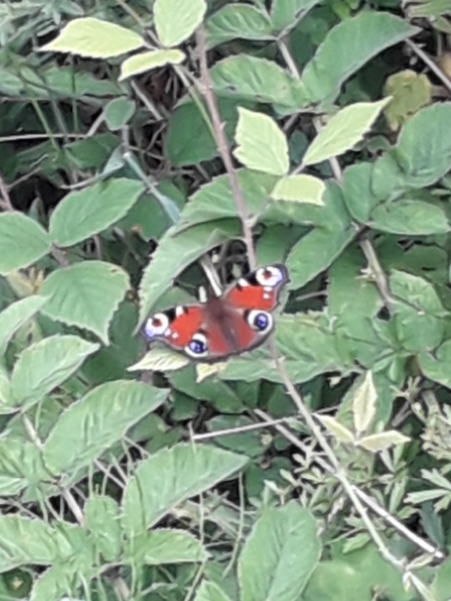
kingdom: Animalia
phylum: Arthropoda
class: Insecta
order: Lepidoptera
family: Nymphalidae
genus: Aglais
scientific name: Aglais io
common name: Peacock
